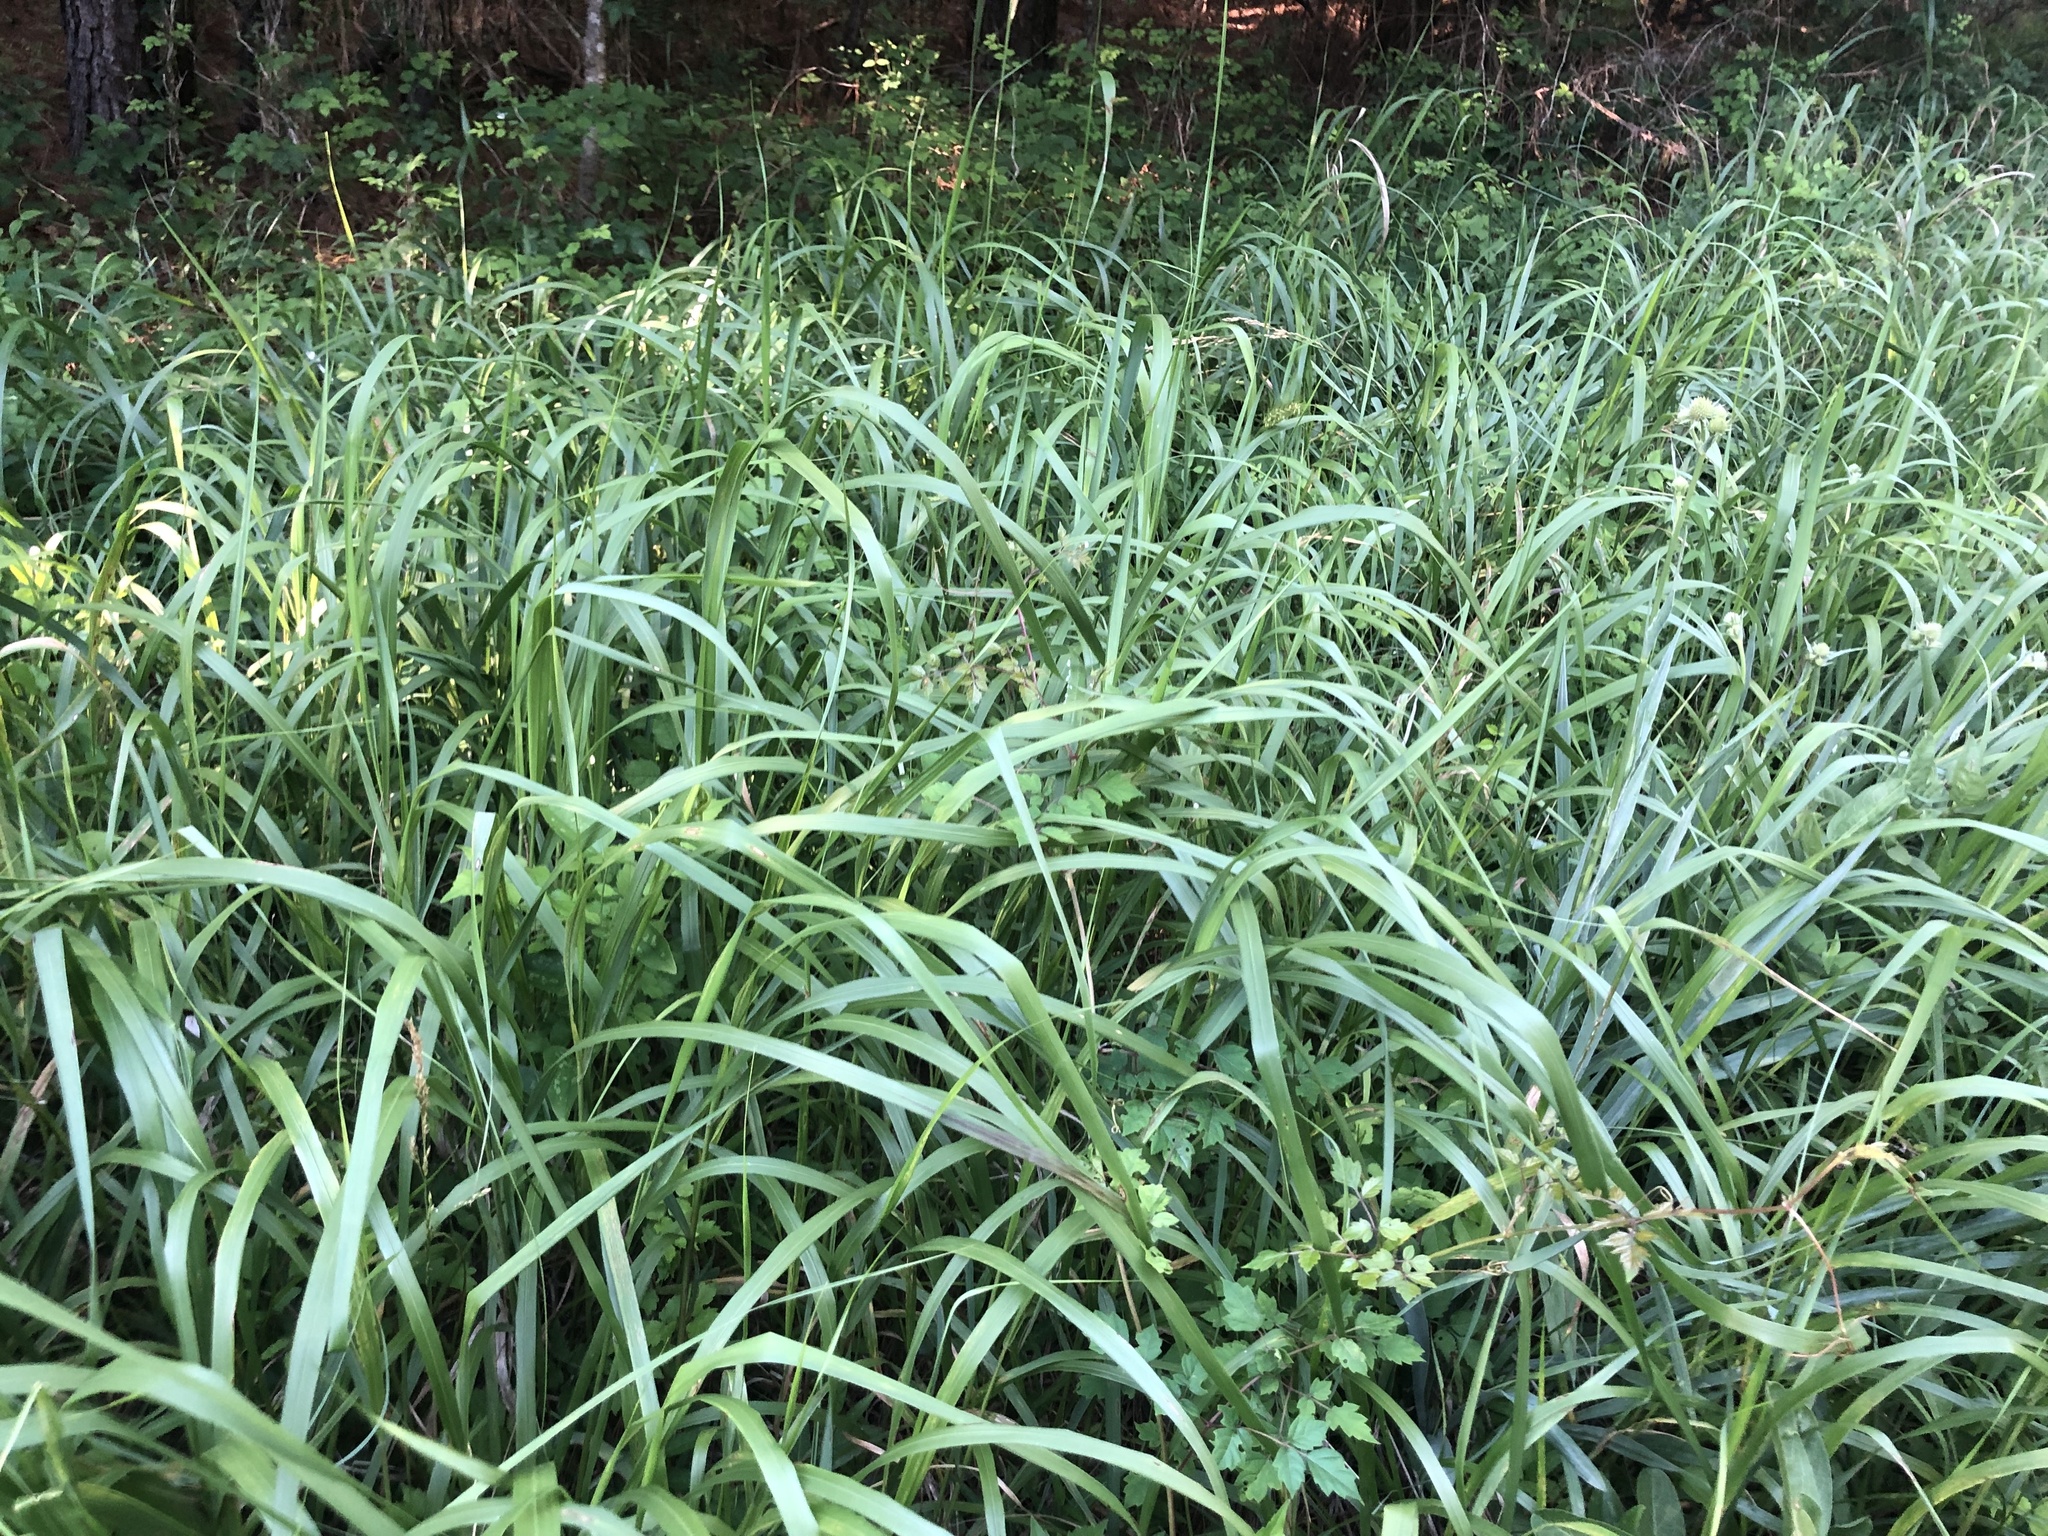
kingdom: Plantae
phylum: Tracheophyta
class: Liliopsida
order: Poales
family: Poaceae
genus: Tripsacum
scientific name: Tripsacum dactyloides
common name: Buffalo-grass
